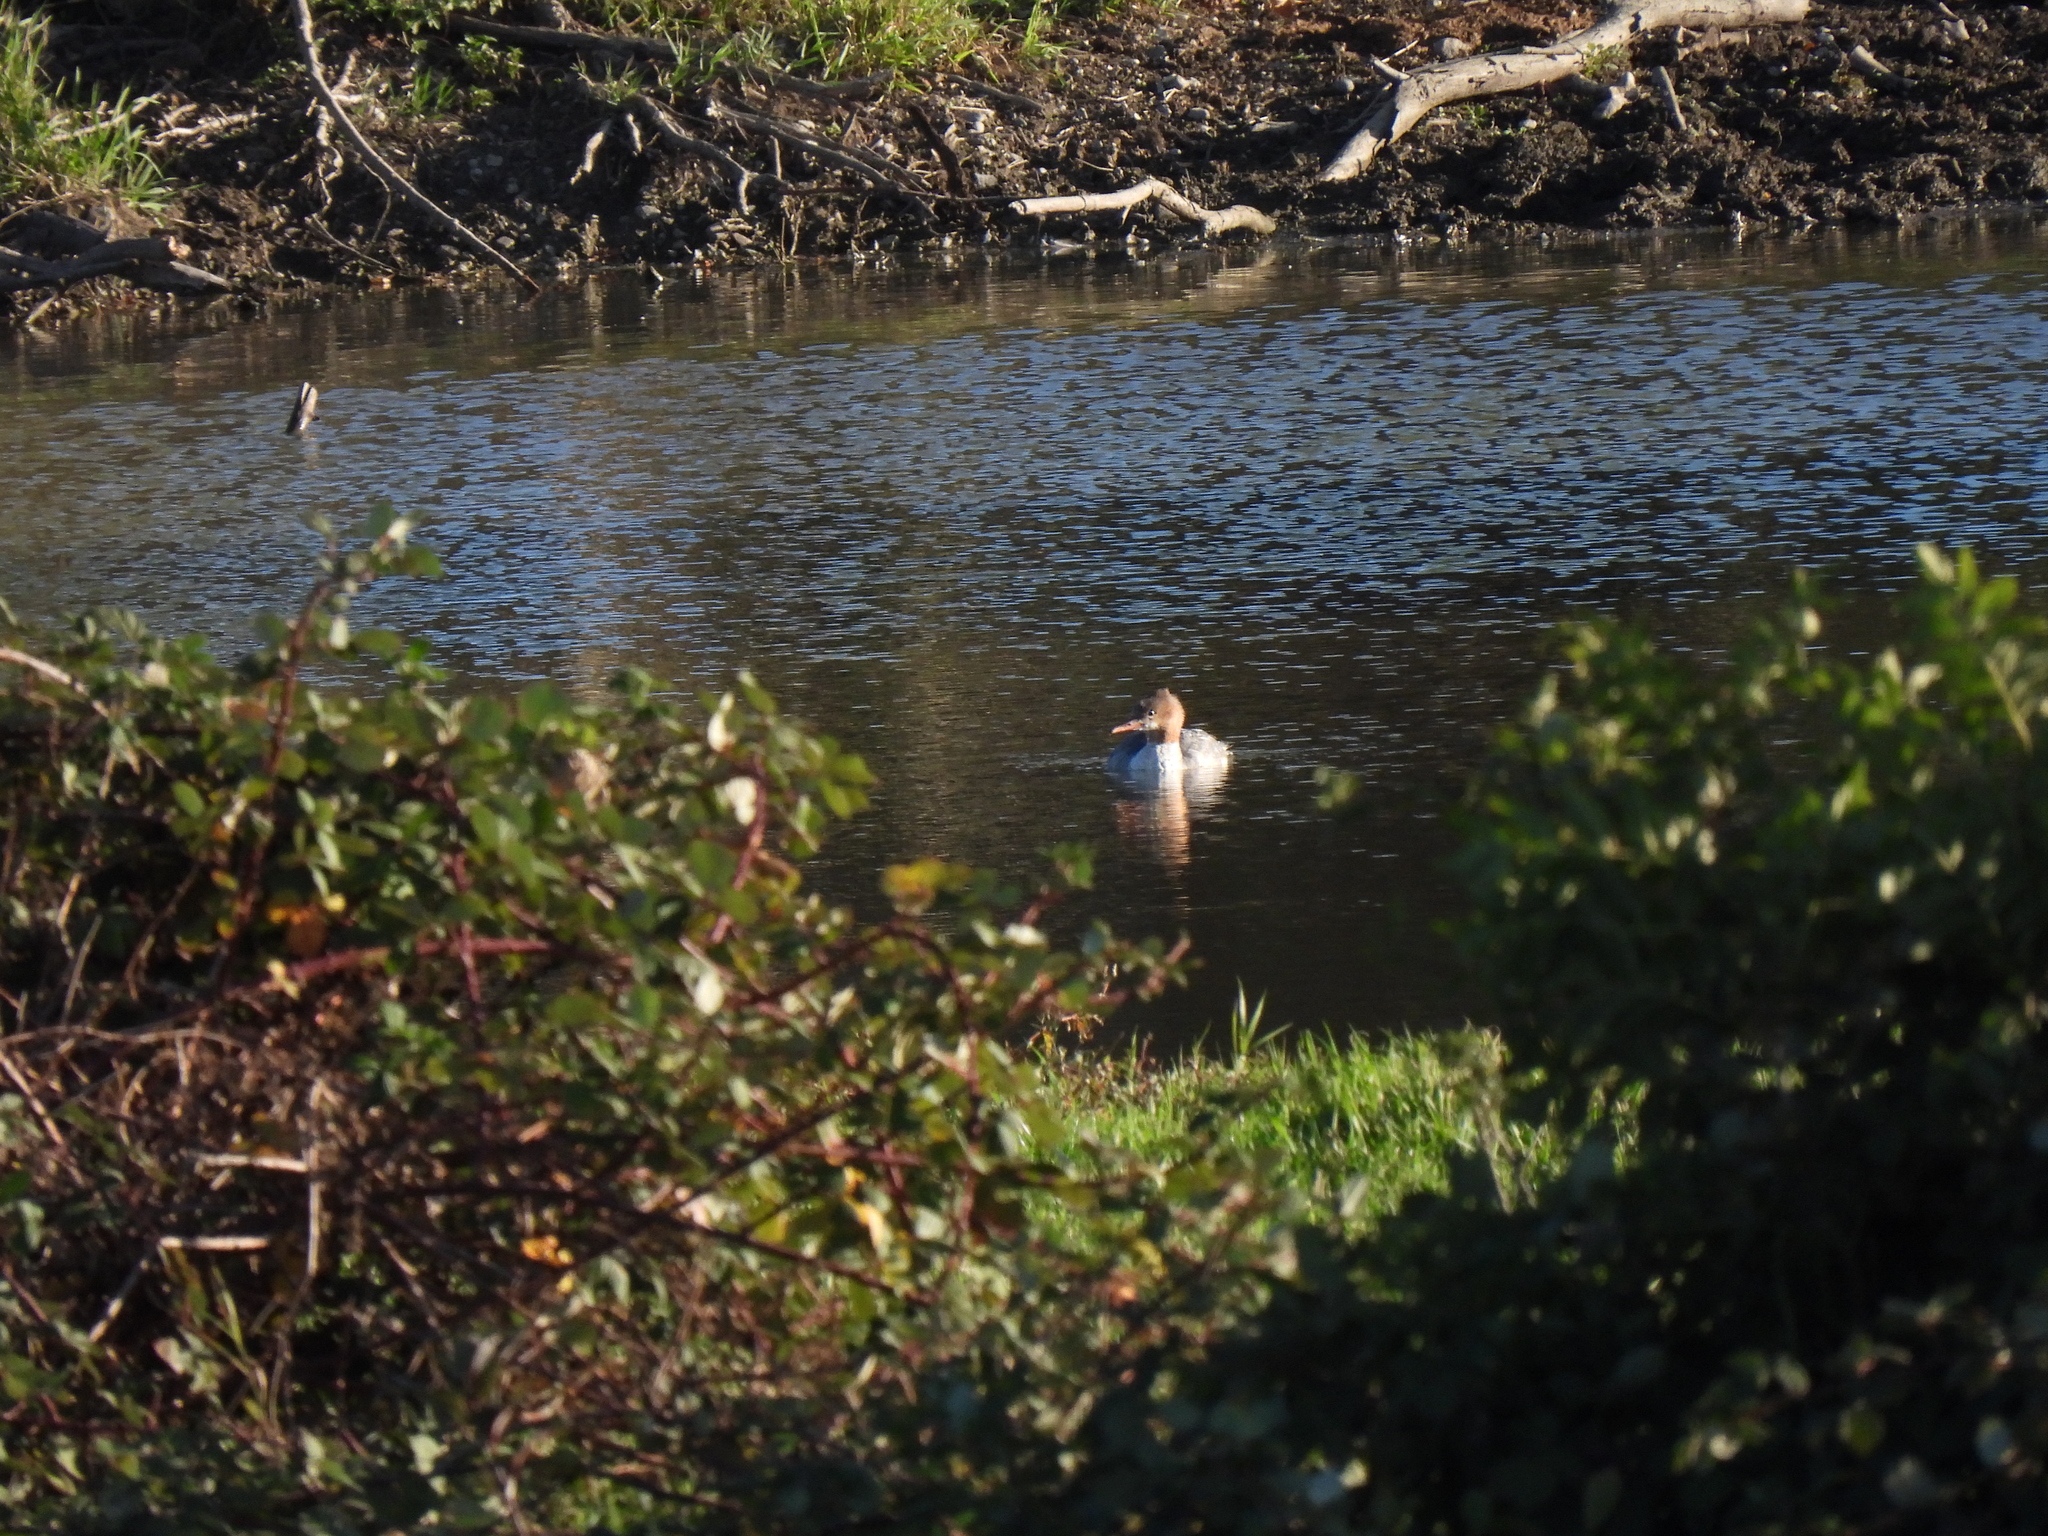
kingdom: Animalia
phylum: Chordata
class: Aves
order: Anseriformes
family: Anatidae
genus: Mergus
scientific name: Mergus merganser
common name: Common merganser
